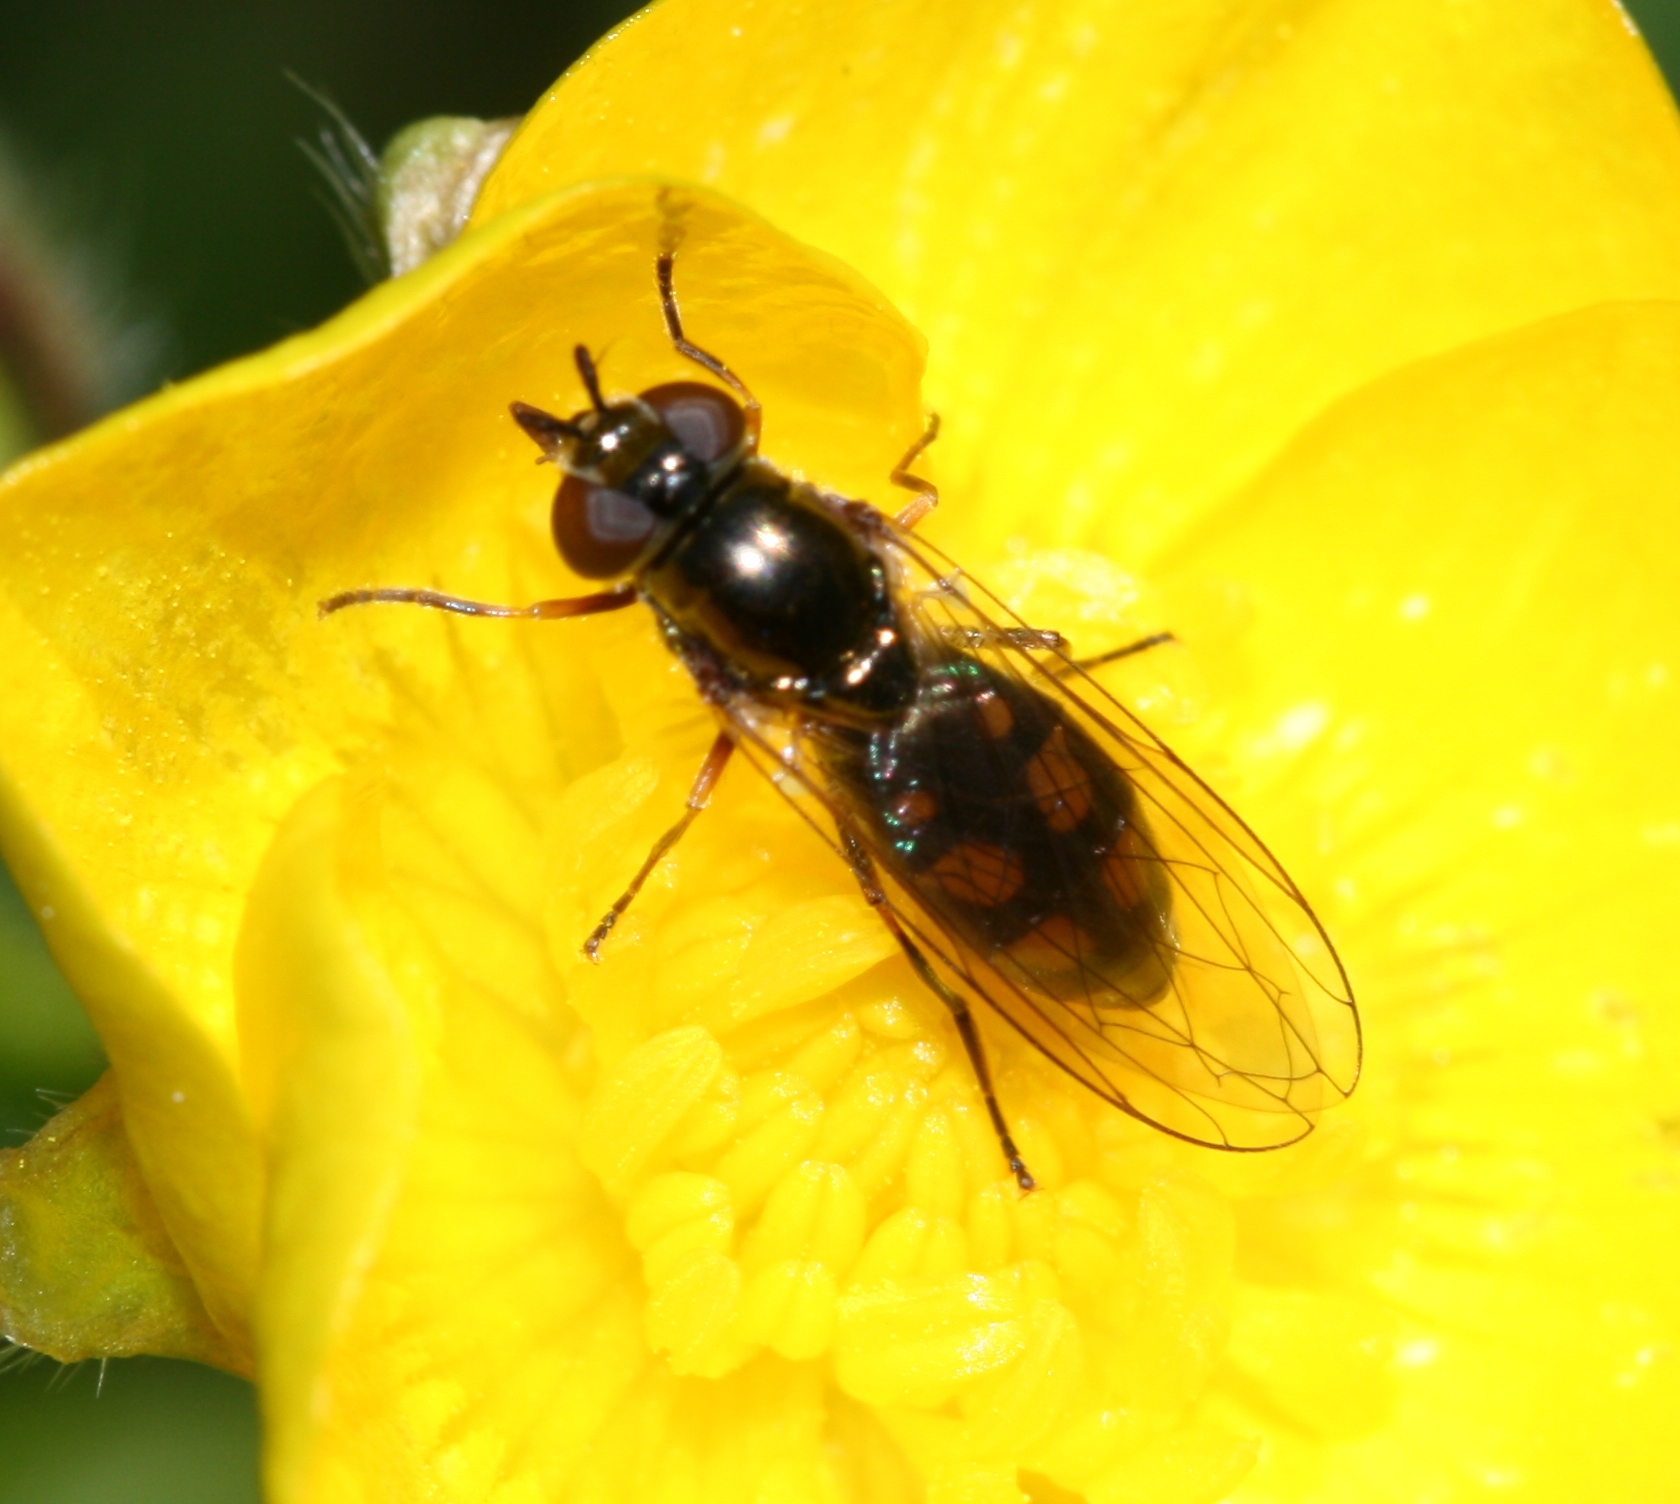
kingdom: Animalia
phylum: Arthropoda
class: Insecta
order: Diptera
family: Syrphidae
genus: Melanostoma
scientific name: Melanostoma mellina
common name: Hover fly
